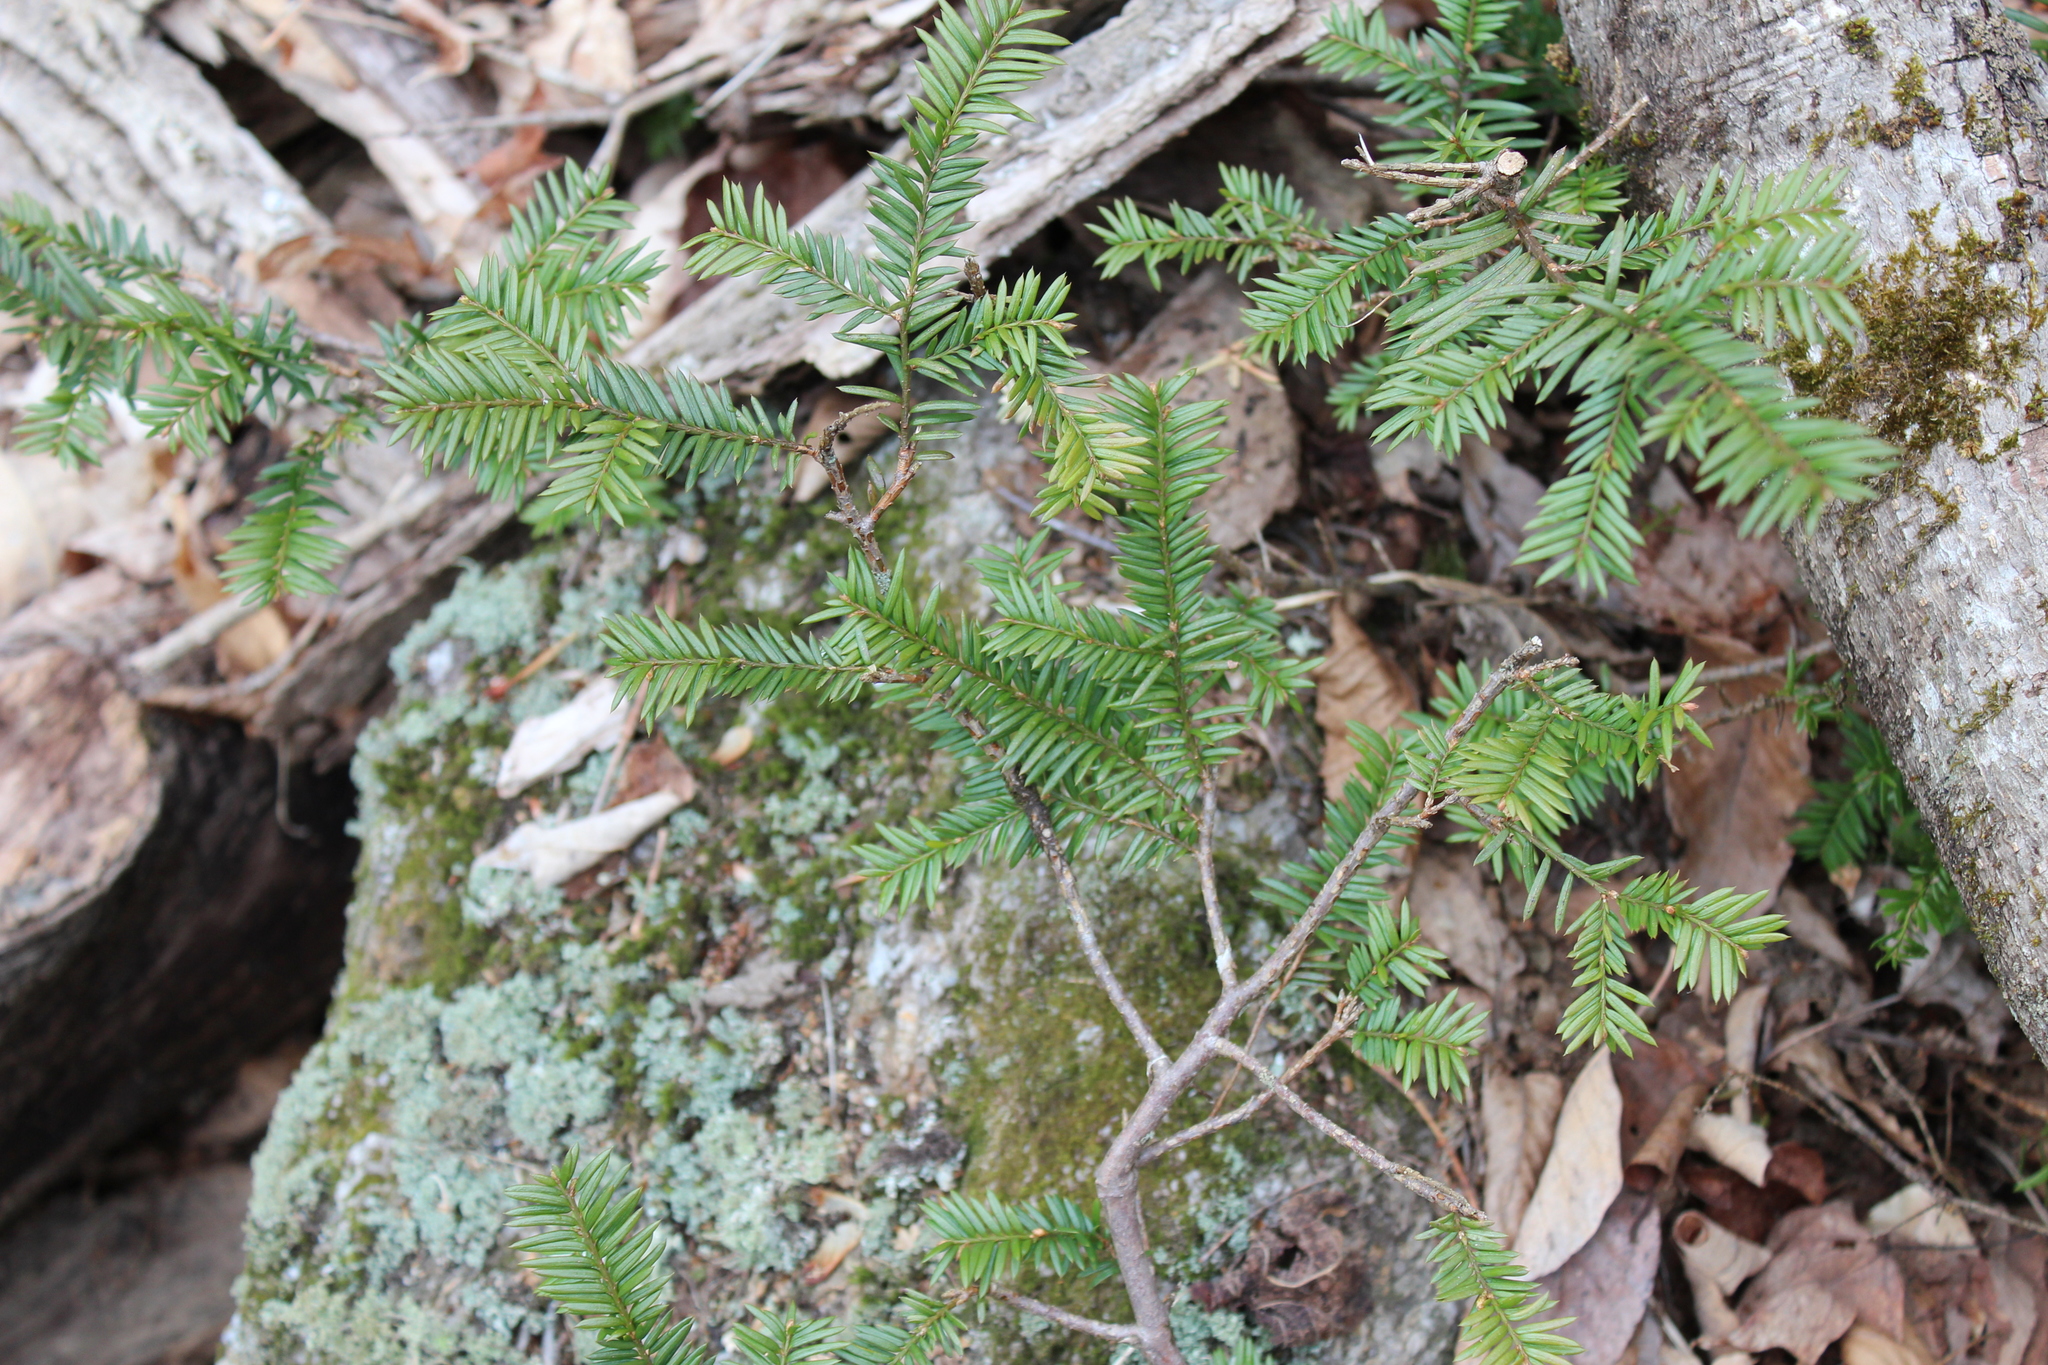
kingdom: Plantae
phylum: Tracheophyta
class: Pinopsida
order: Pinales
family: Taxaceae
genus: Taxus
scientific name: Taxus canadensis
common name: American yew
